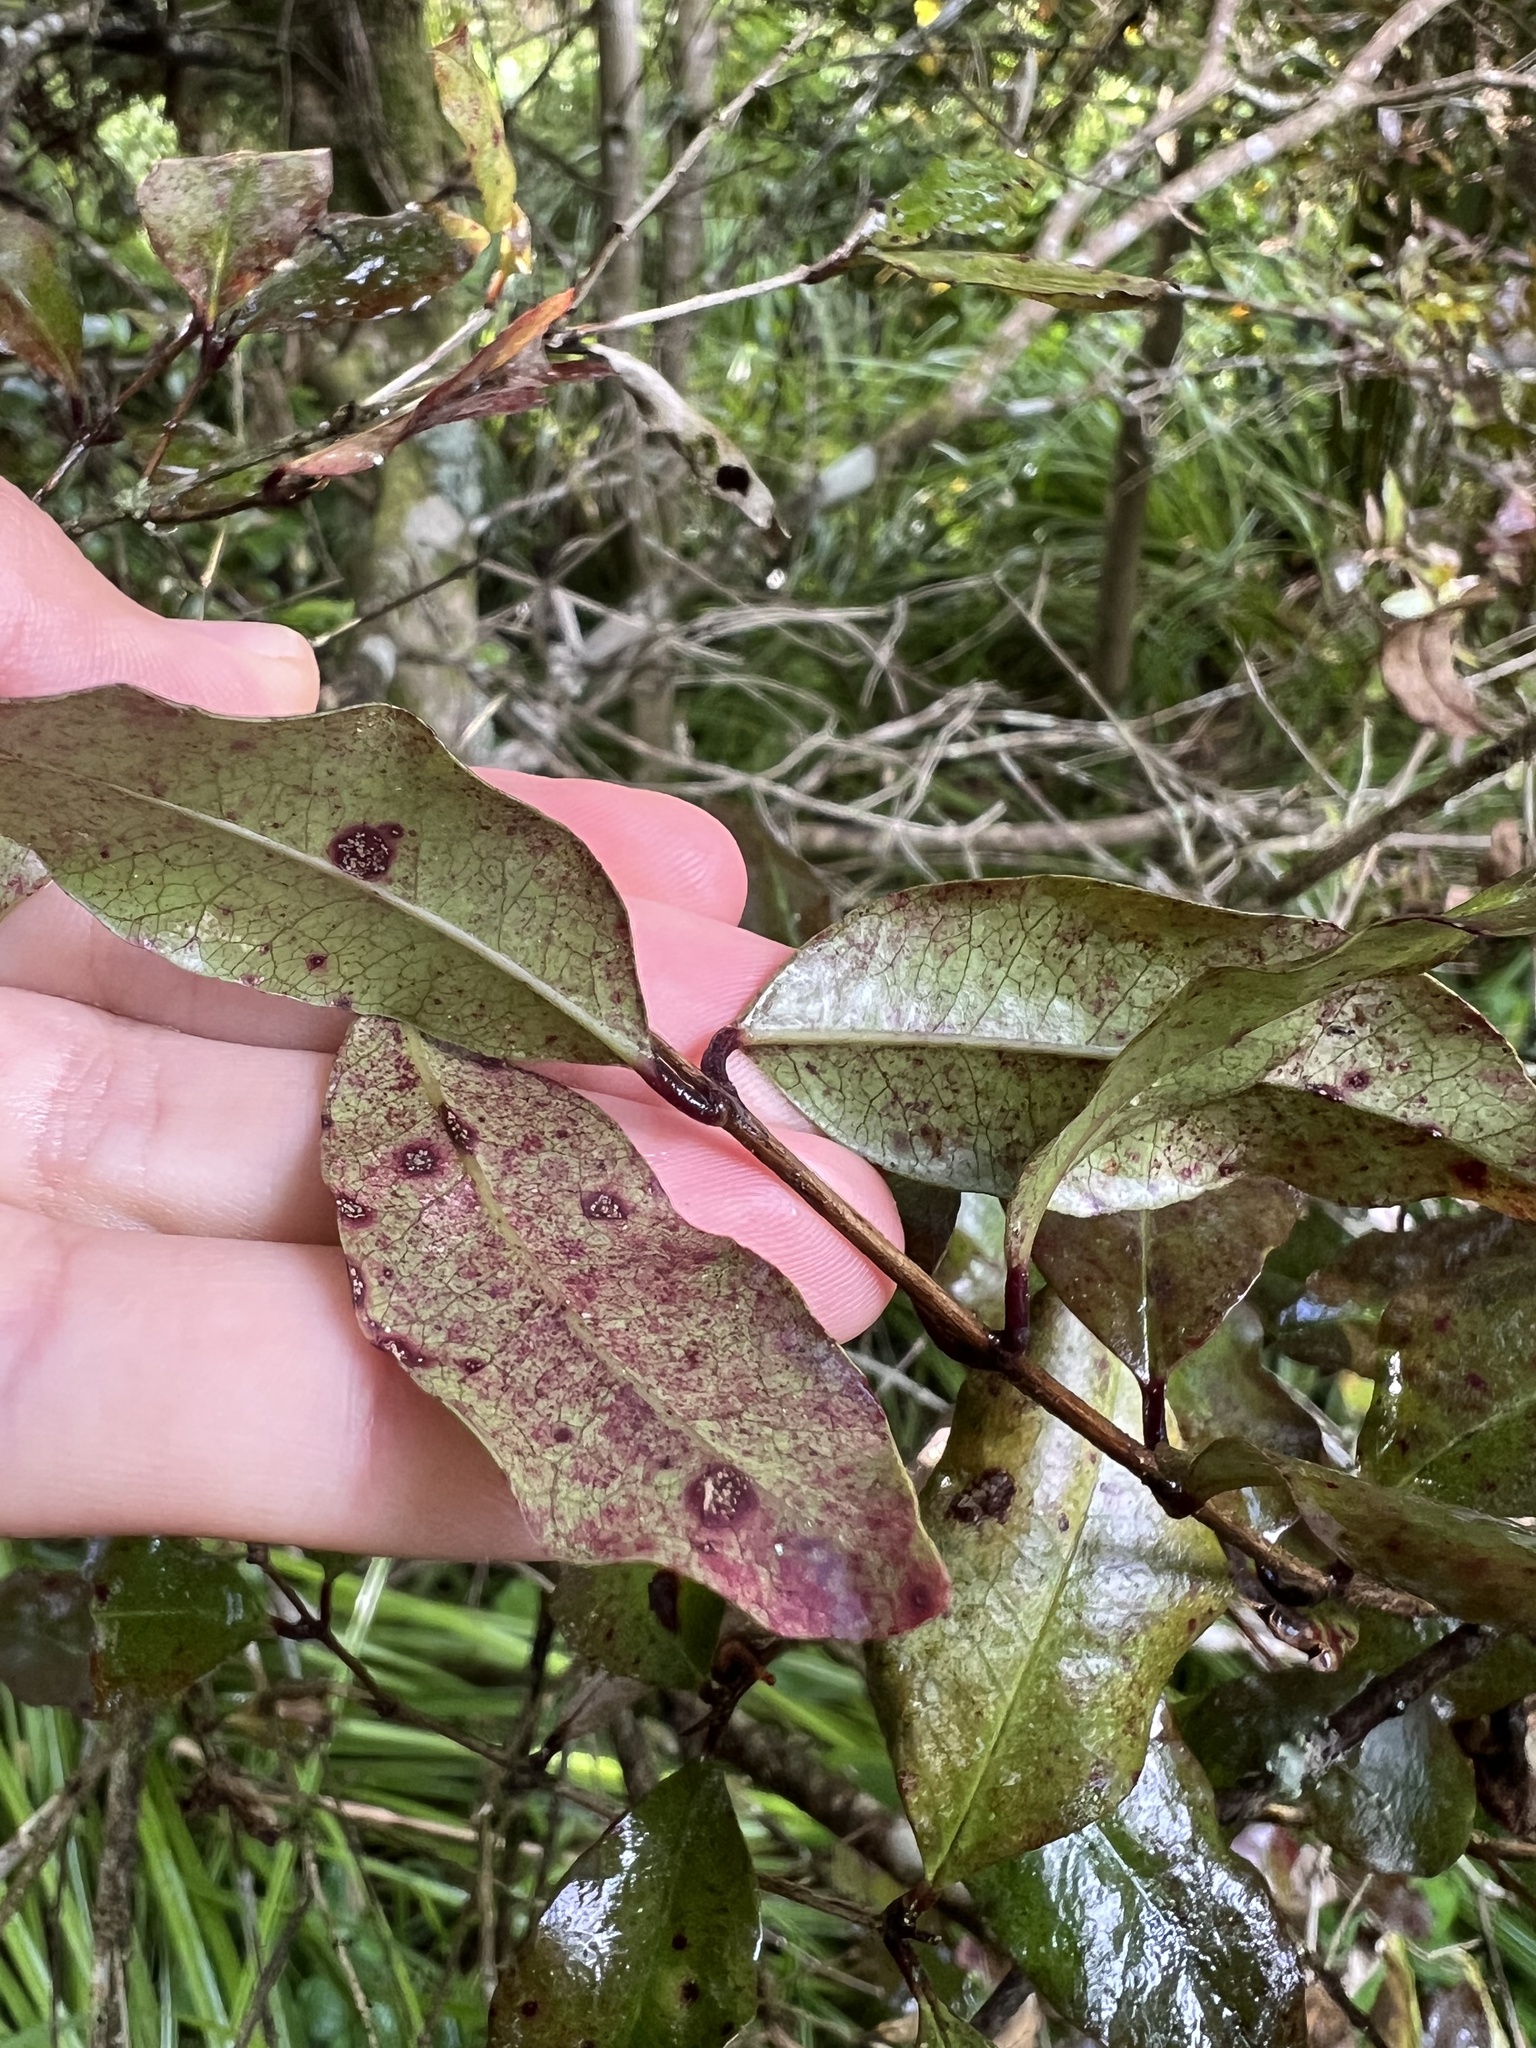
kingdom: Plantae
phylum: Tracheophyta
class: Magnoliopsida
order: Myrtales
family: Myrtaceae
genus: Syzygium
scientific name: Syzygium maire
